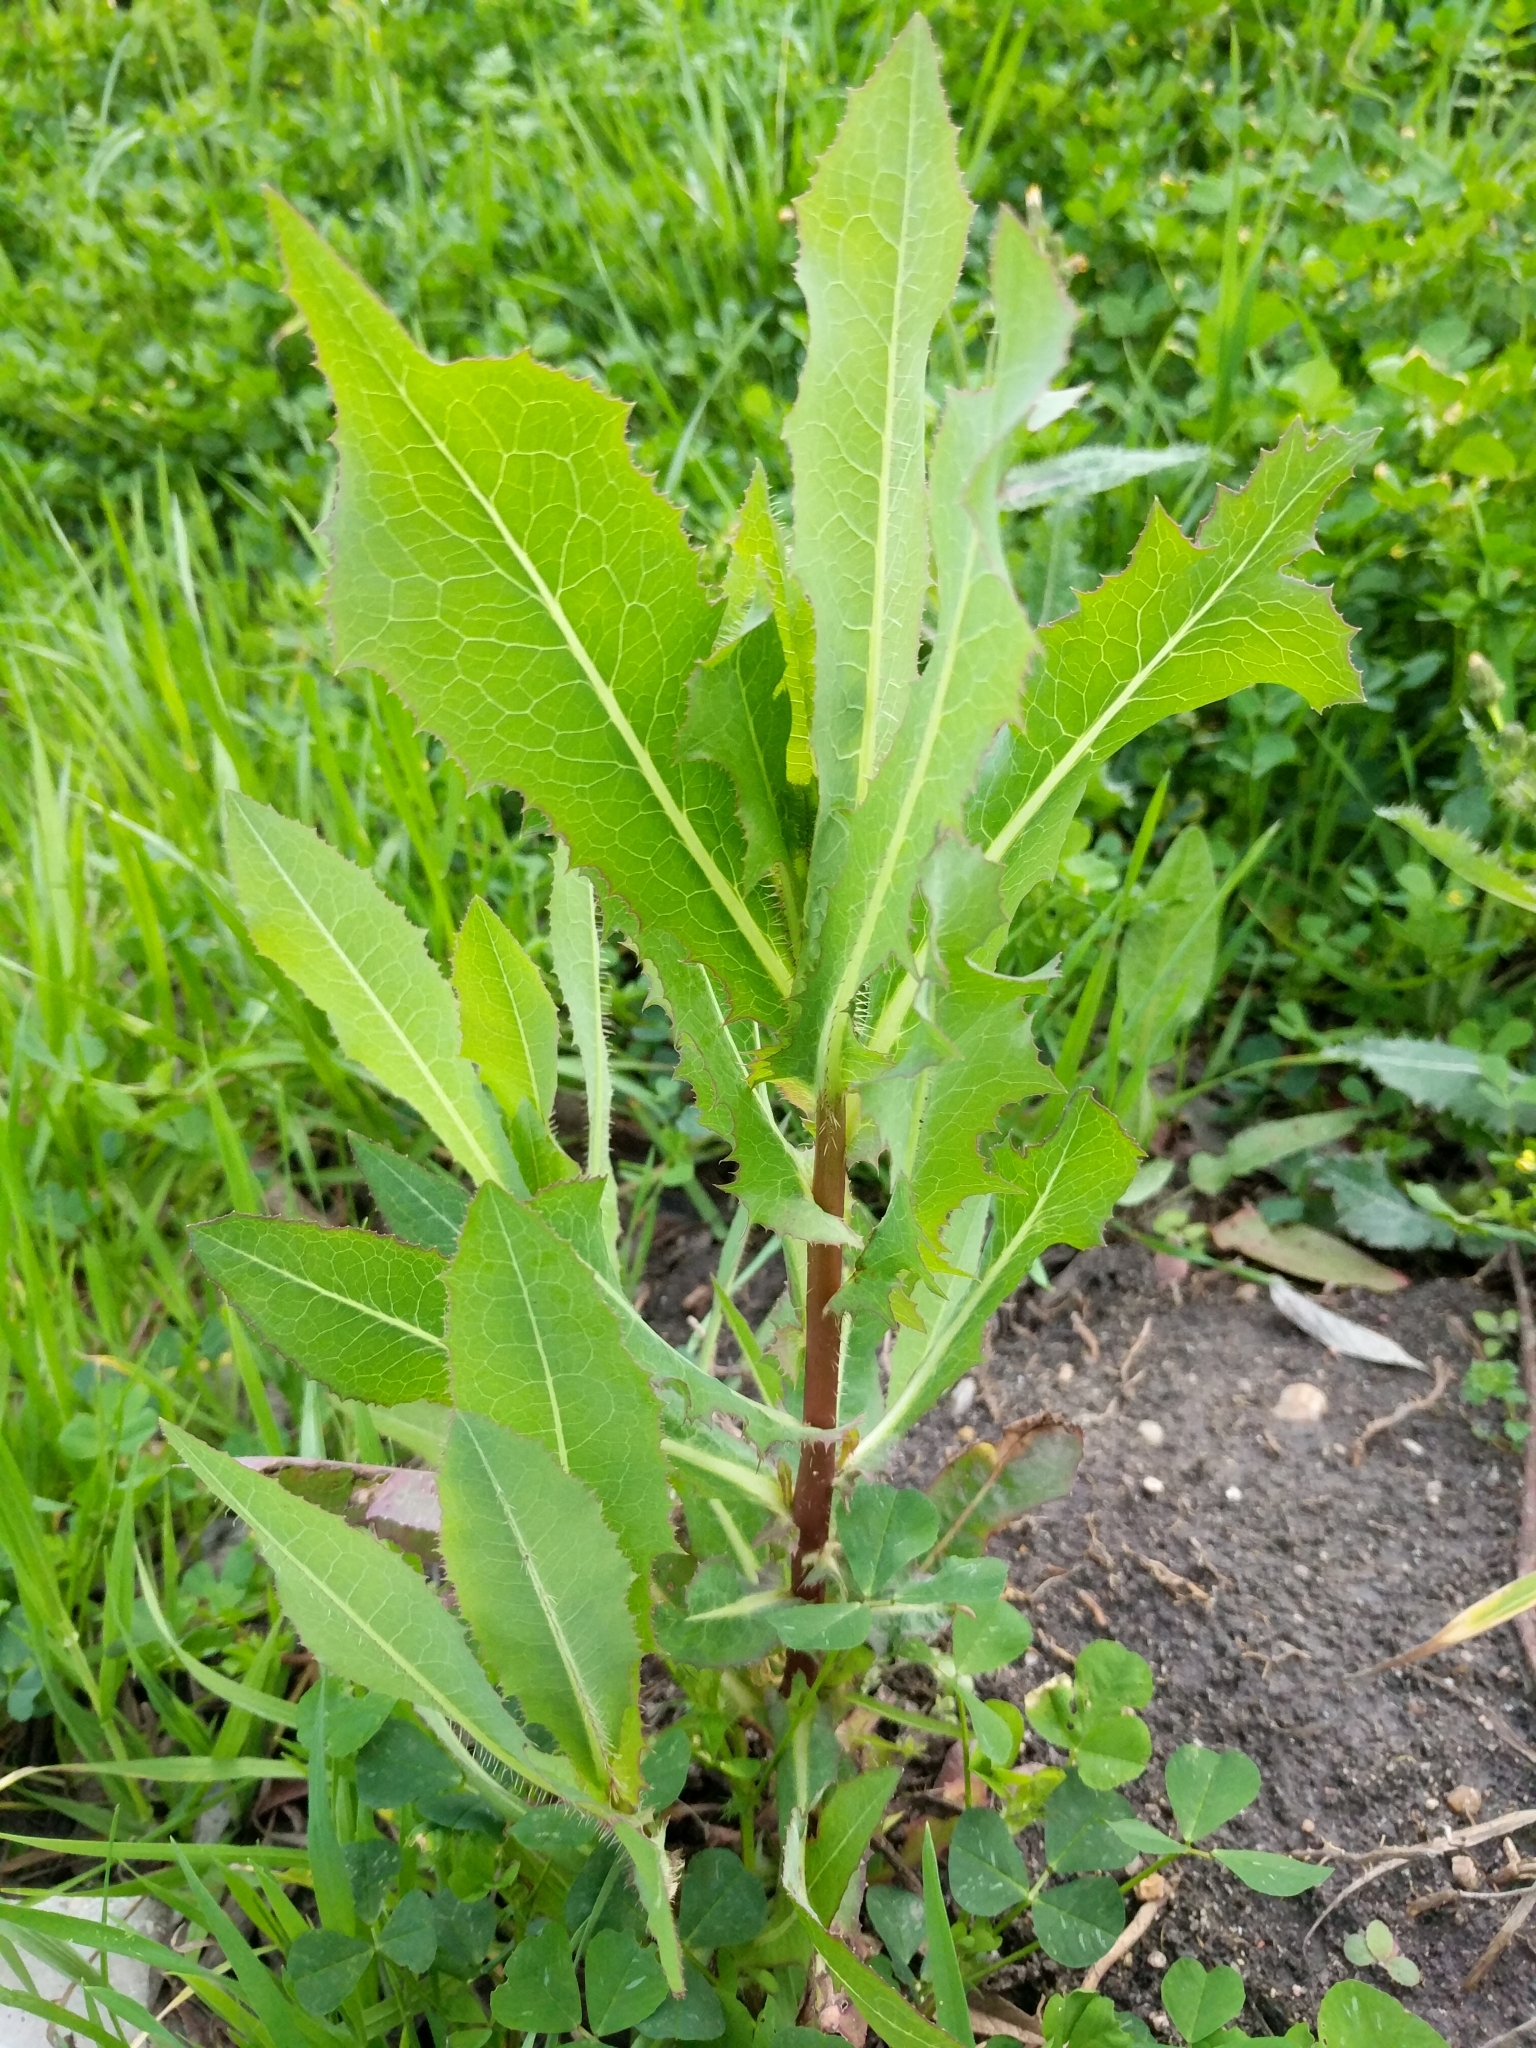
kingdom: Plantae
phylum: Tracheophyta
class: Magnoliopsida
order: Asterales
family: Asteraceae
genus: Lactuca
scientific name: Lactuca serriola
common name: Prickly lettuce
